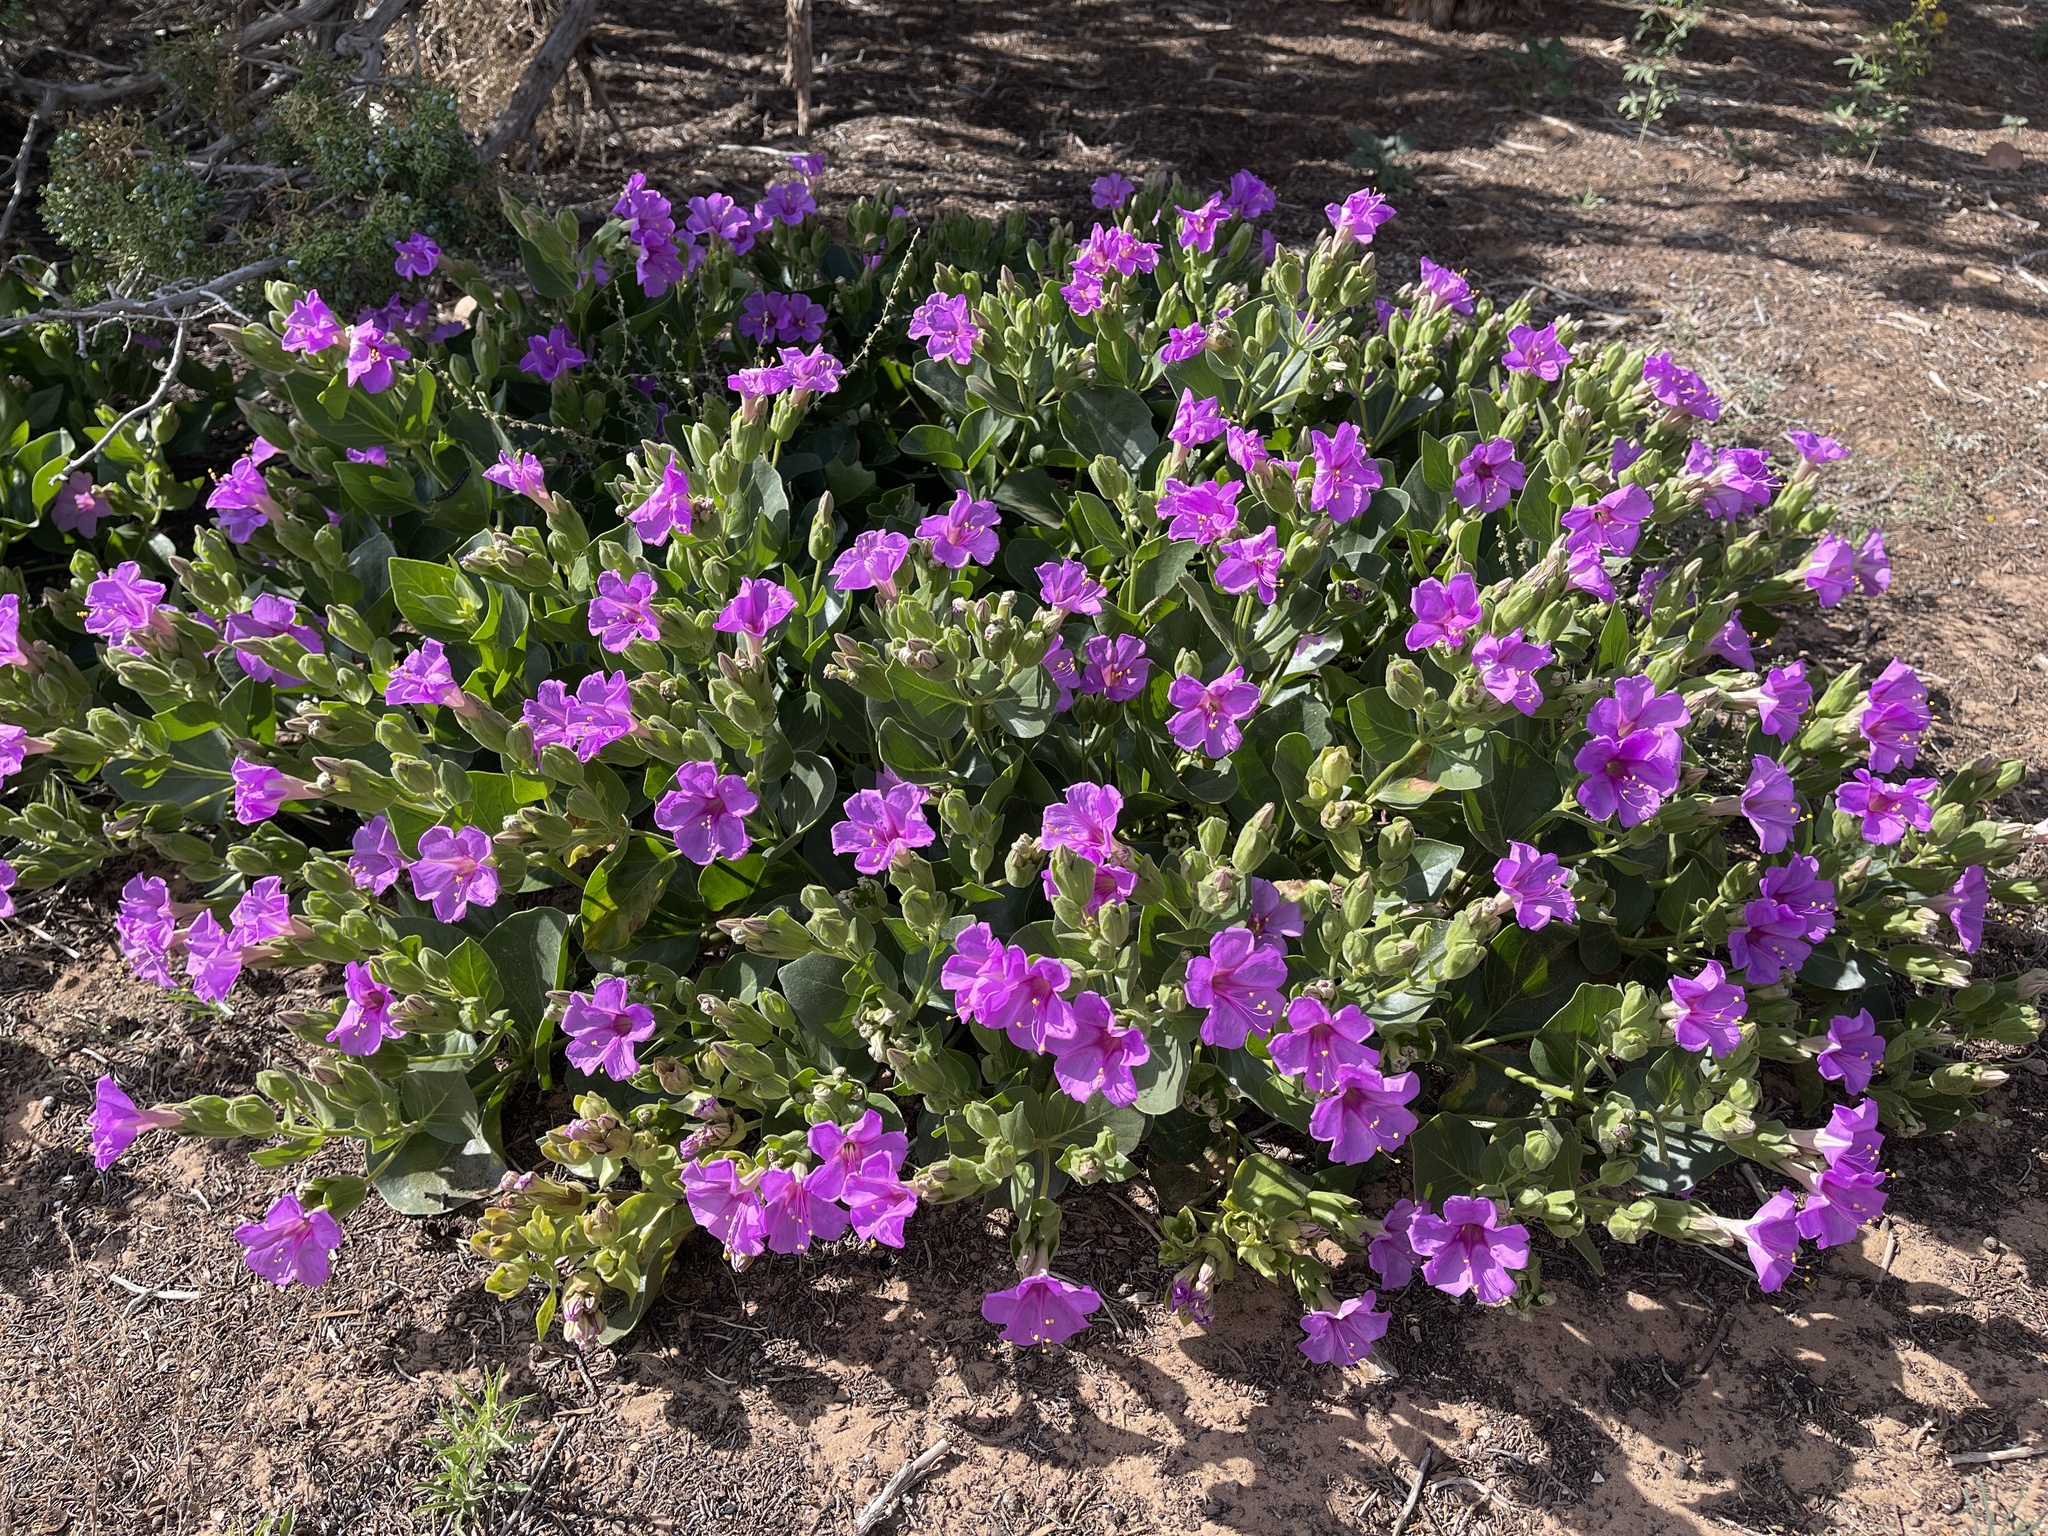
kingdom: Plantae
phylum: Tracheophyta
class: Magnoliopsida
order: Caryophyllales
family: Nyctaginaceae
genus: Mirabilis
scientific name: Mirabilis multiflora
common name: Froebel's four-o'clock
